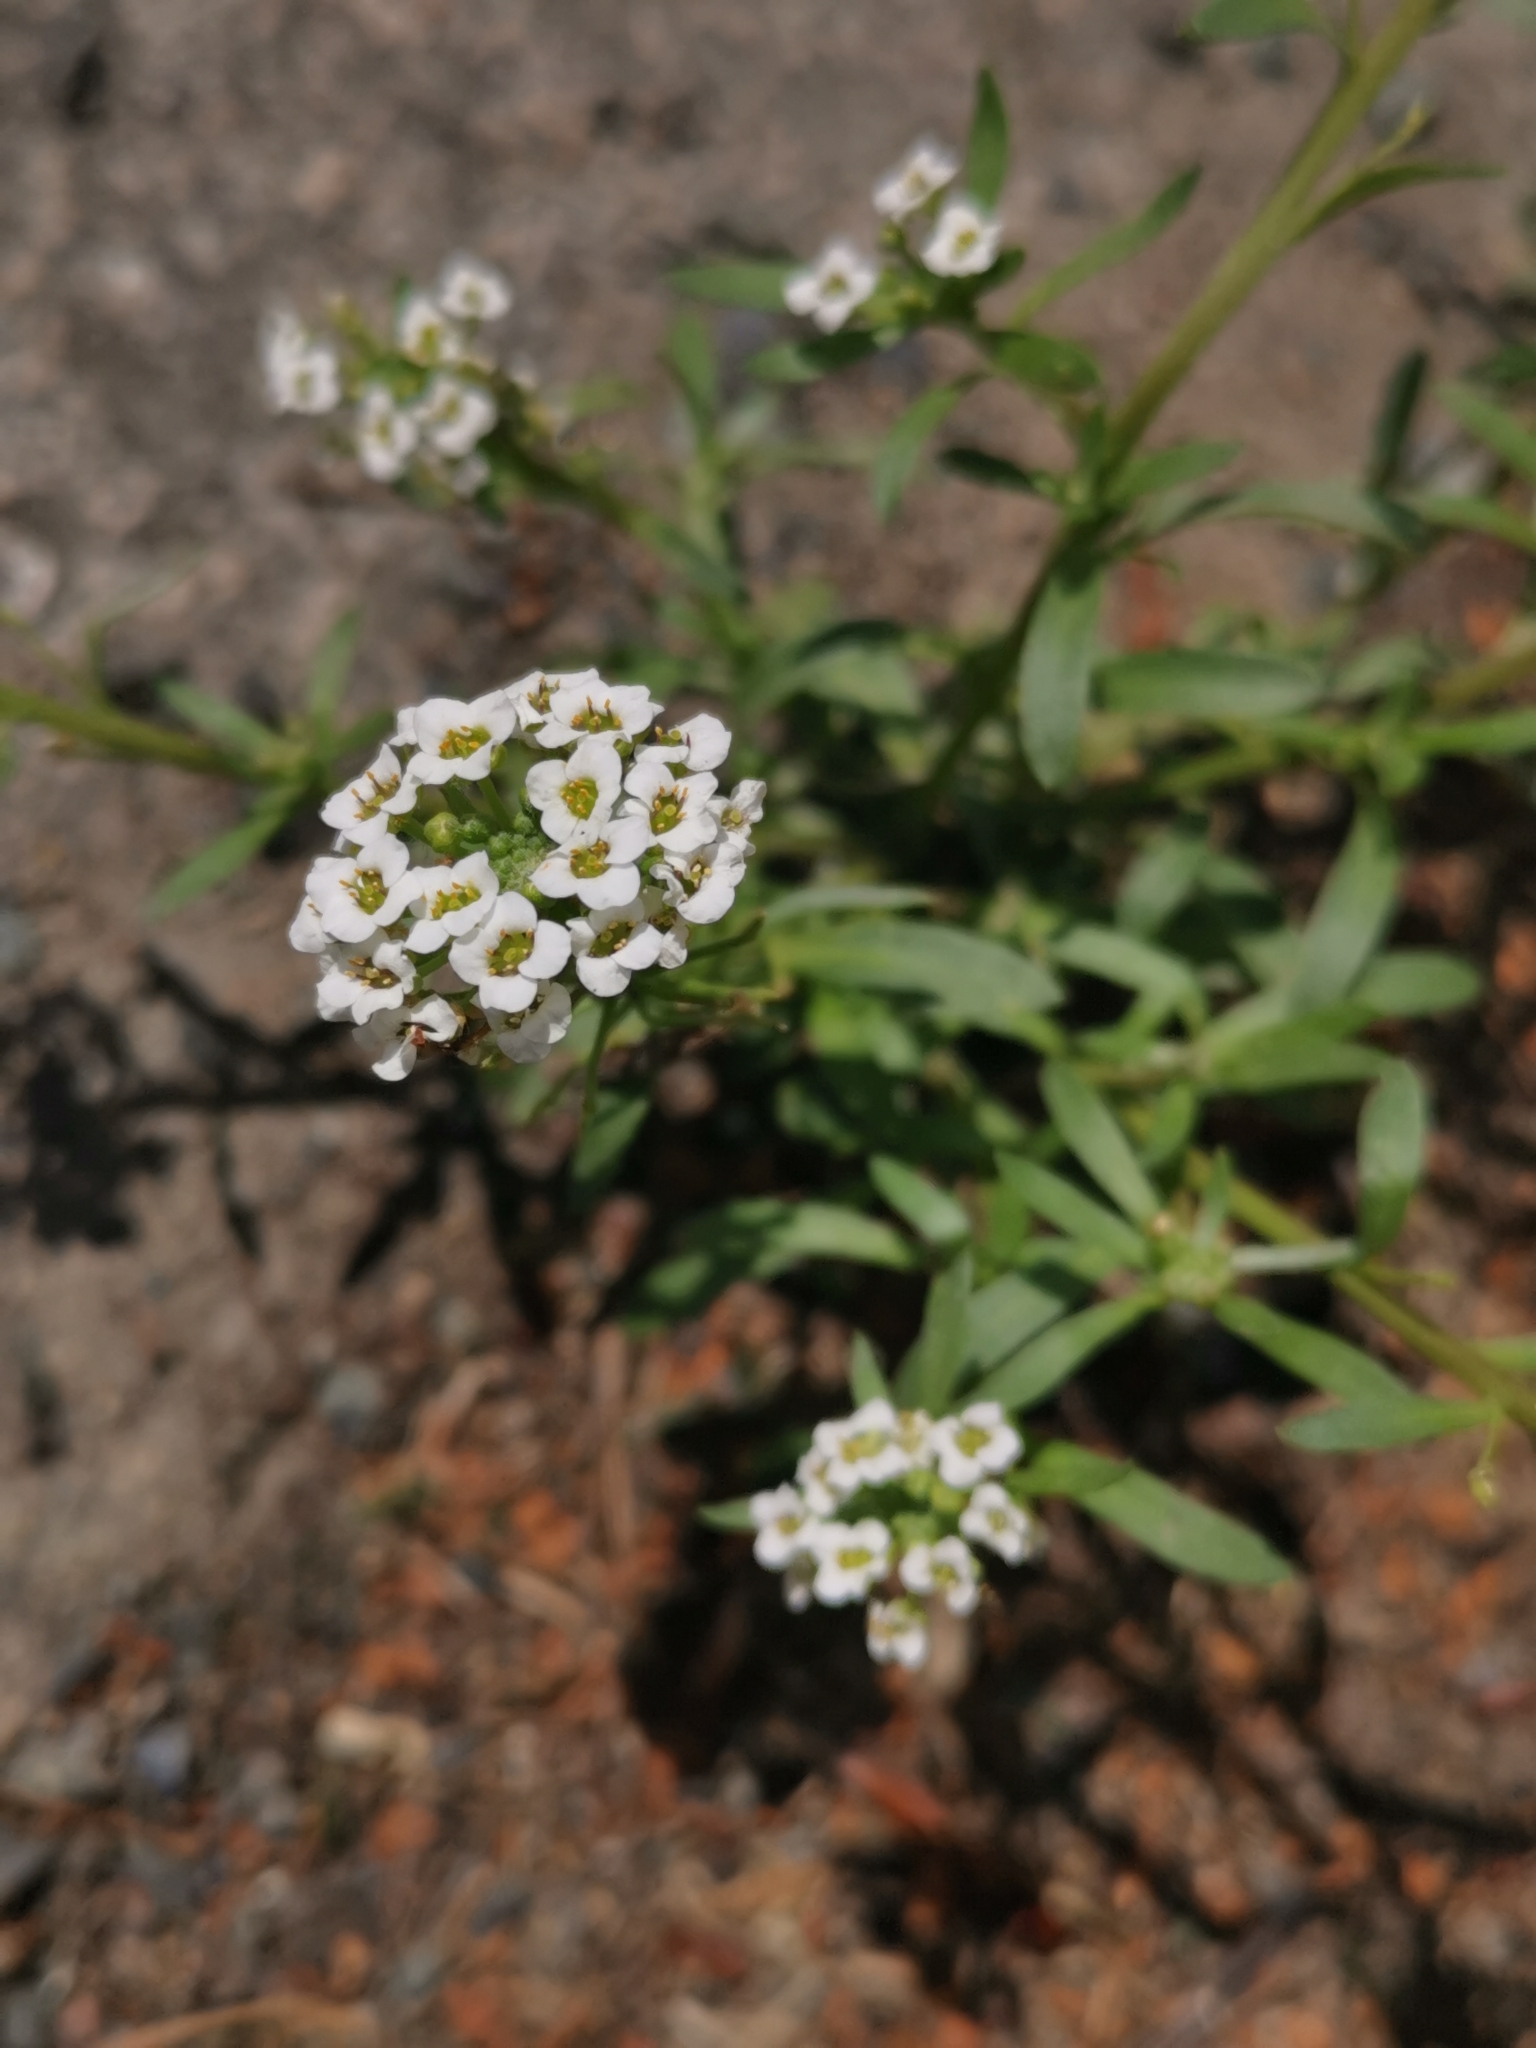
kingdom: Plantae
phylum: Tracheophyta
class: Magnoliopsida
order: Brassicales
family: Brassicaceae
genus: Lobularia
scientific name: Lobularia maritima
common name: Sweet alison
